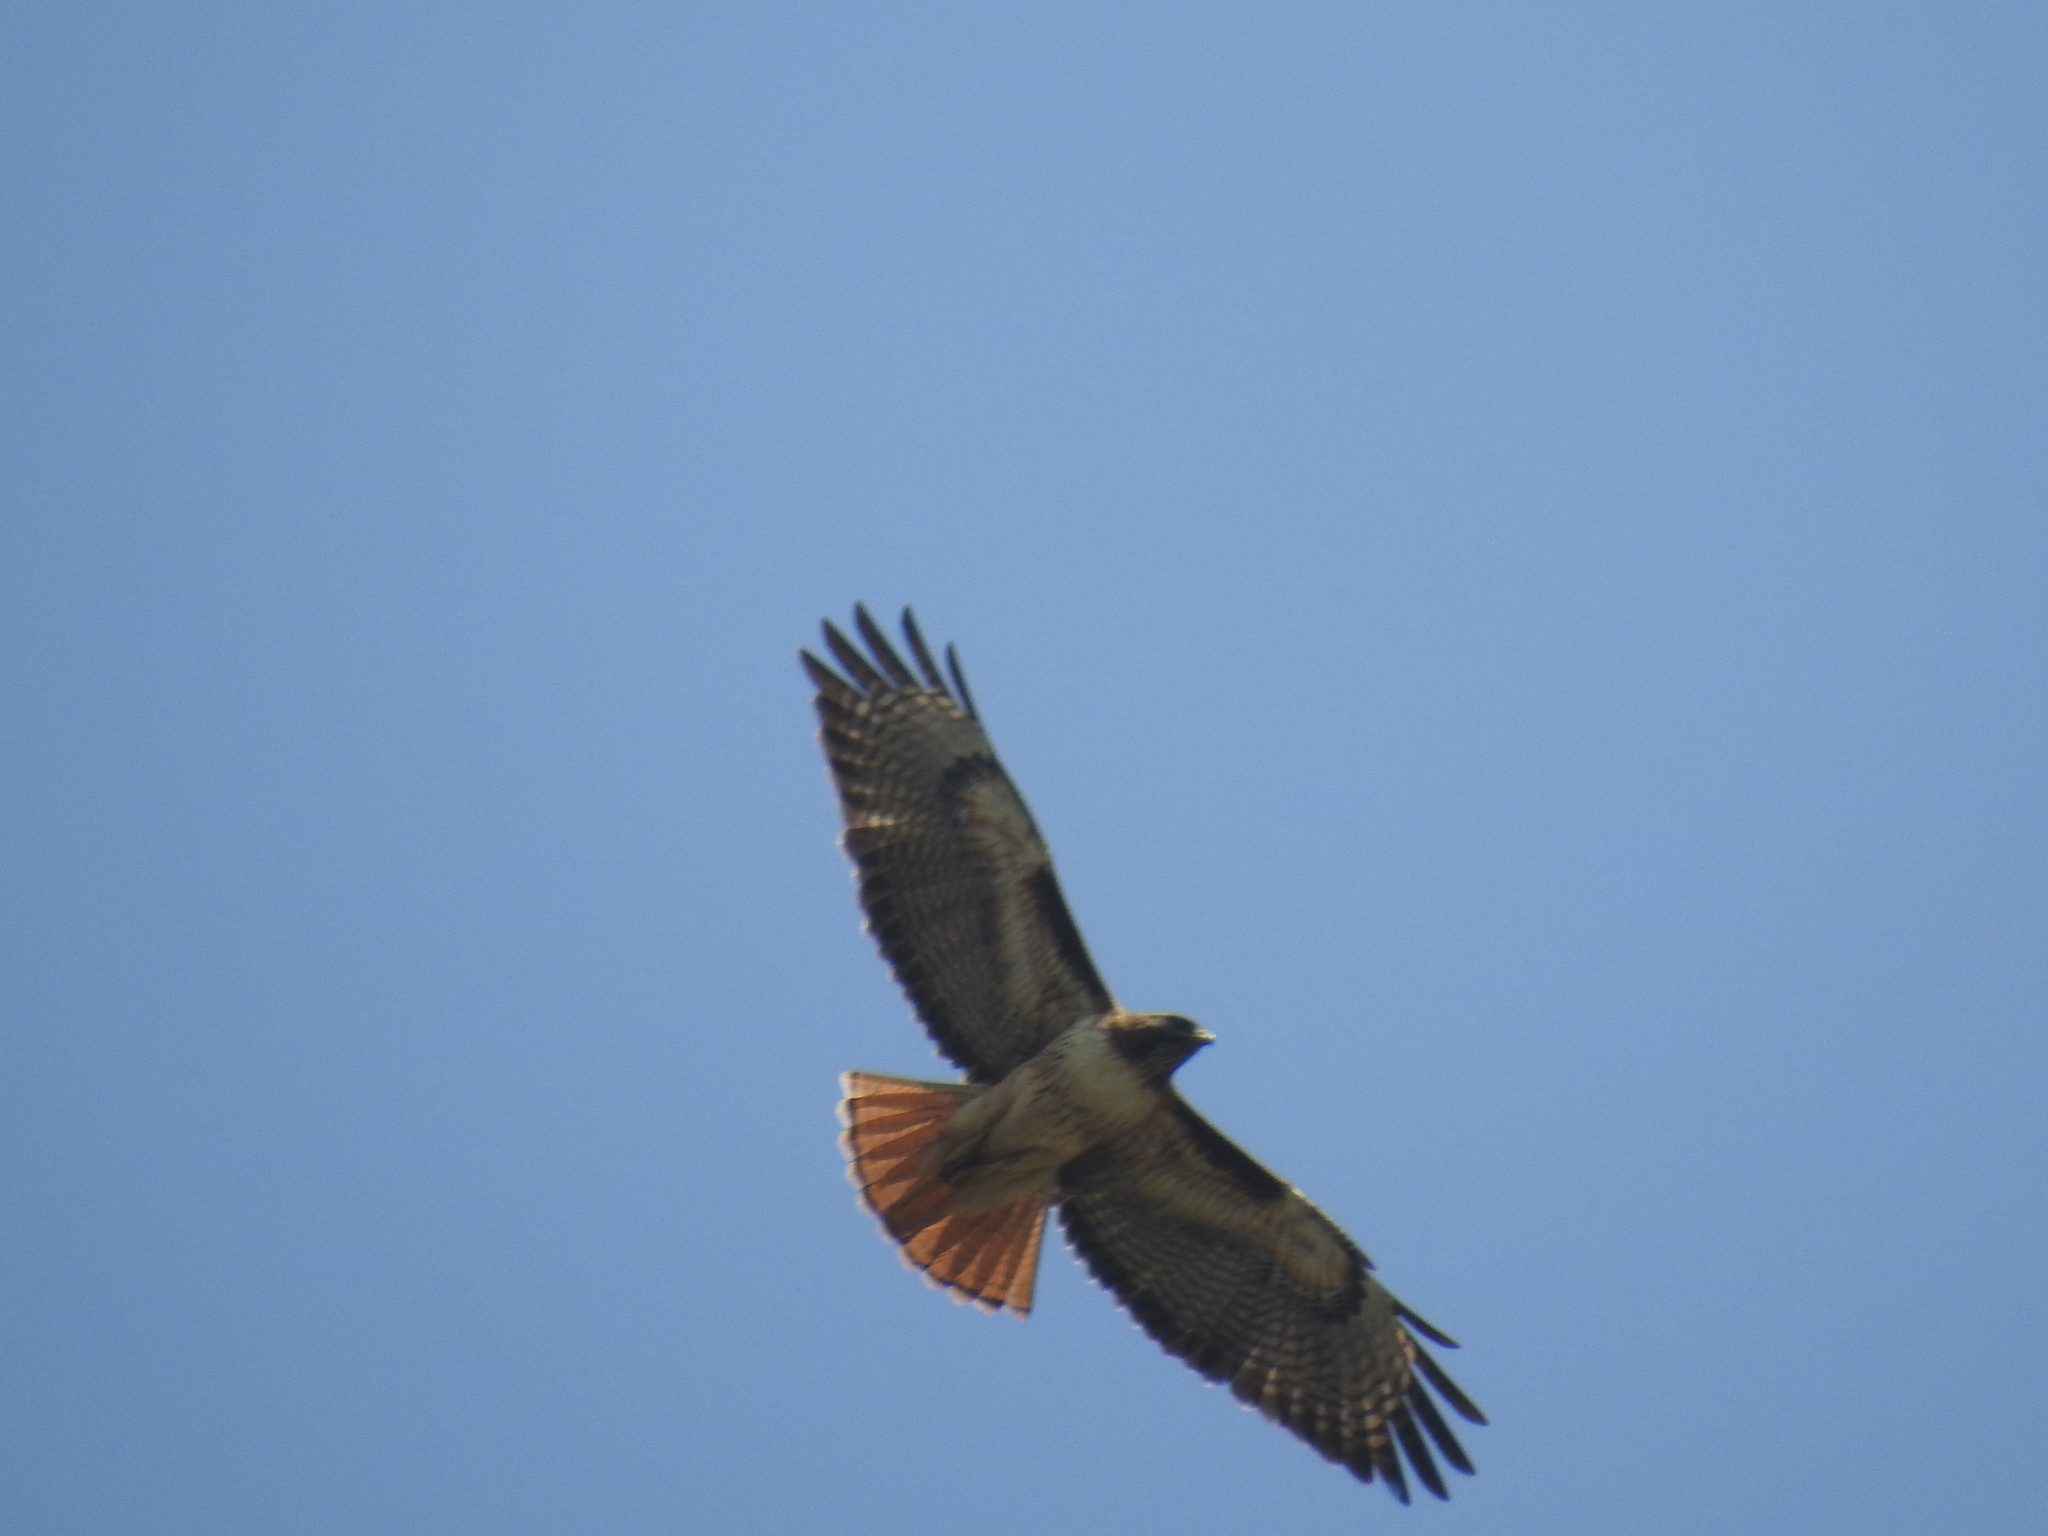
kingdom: Animalia
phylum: Chordata
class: Aves
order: Accipitriformes
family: Accipitridae
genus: Buteo
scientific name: Buteo jamaicensis
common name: Red-tailed hawk
